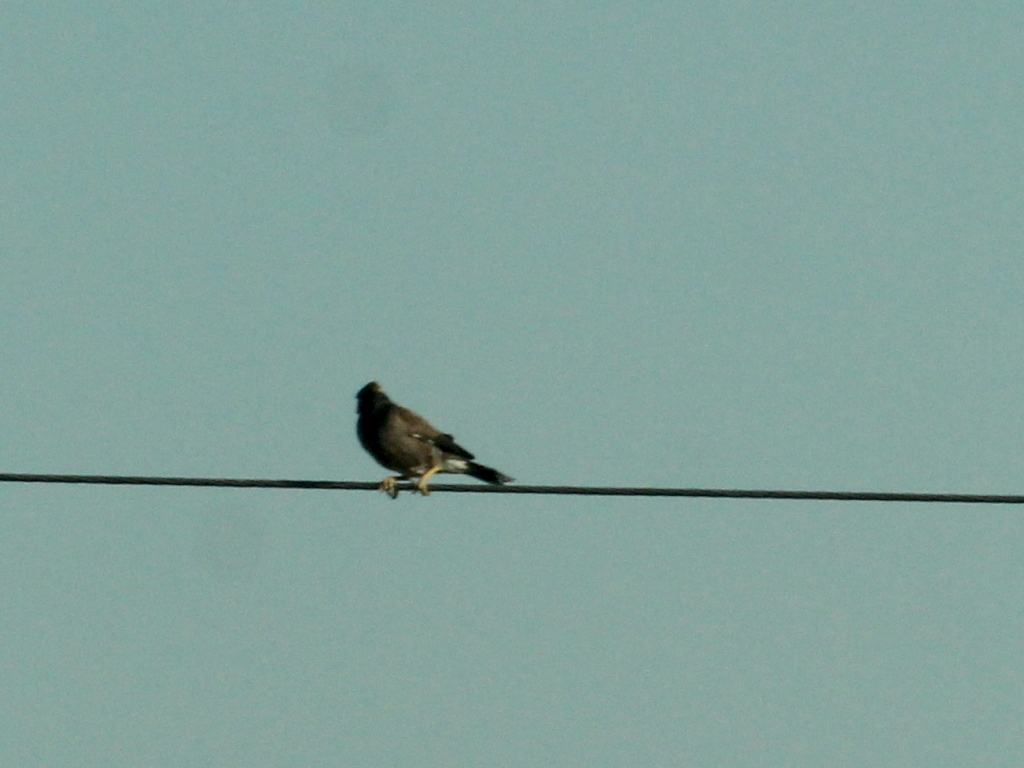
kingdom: Animalia
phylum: Chordata
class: Aves
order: Passeriformes
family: Sturnidae
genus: Acridotheres
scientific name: Acridotheres tristis
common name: Common myna
